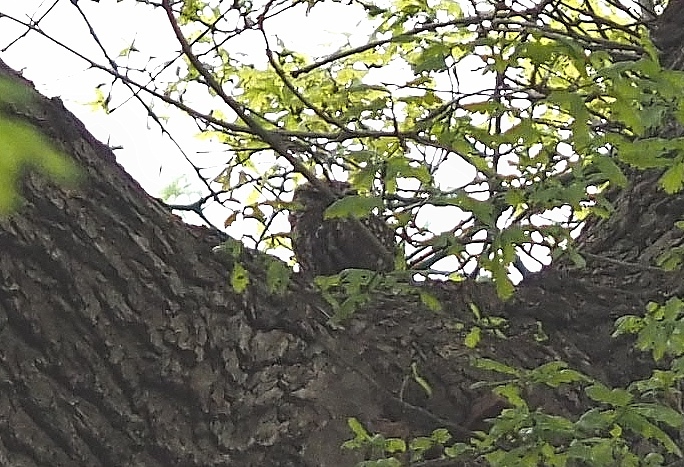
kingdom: Animalia
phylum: Chordata
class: Aves
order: Strigiformes
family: Strigidae
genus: Athene
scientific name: Athene noctua
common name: Little owl
